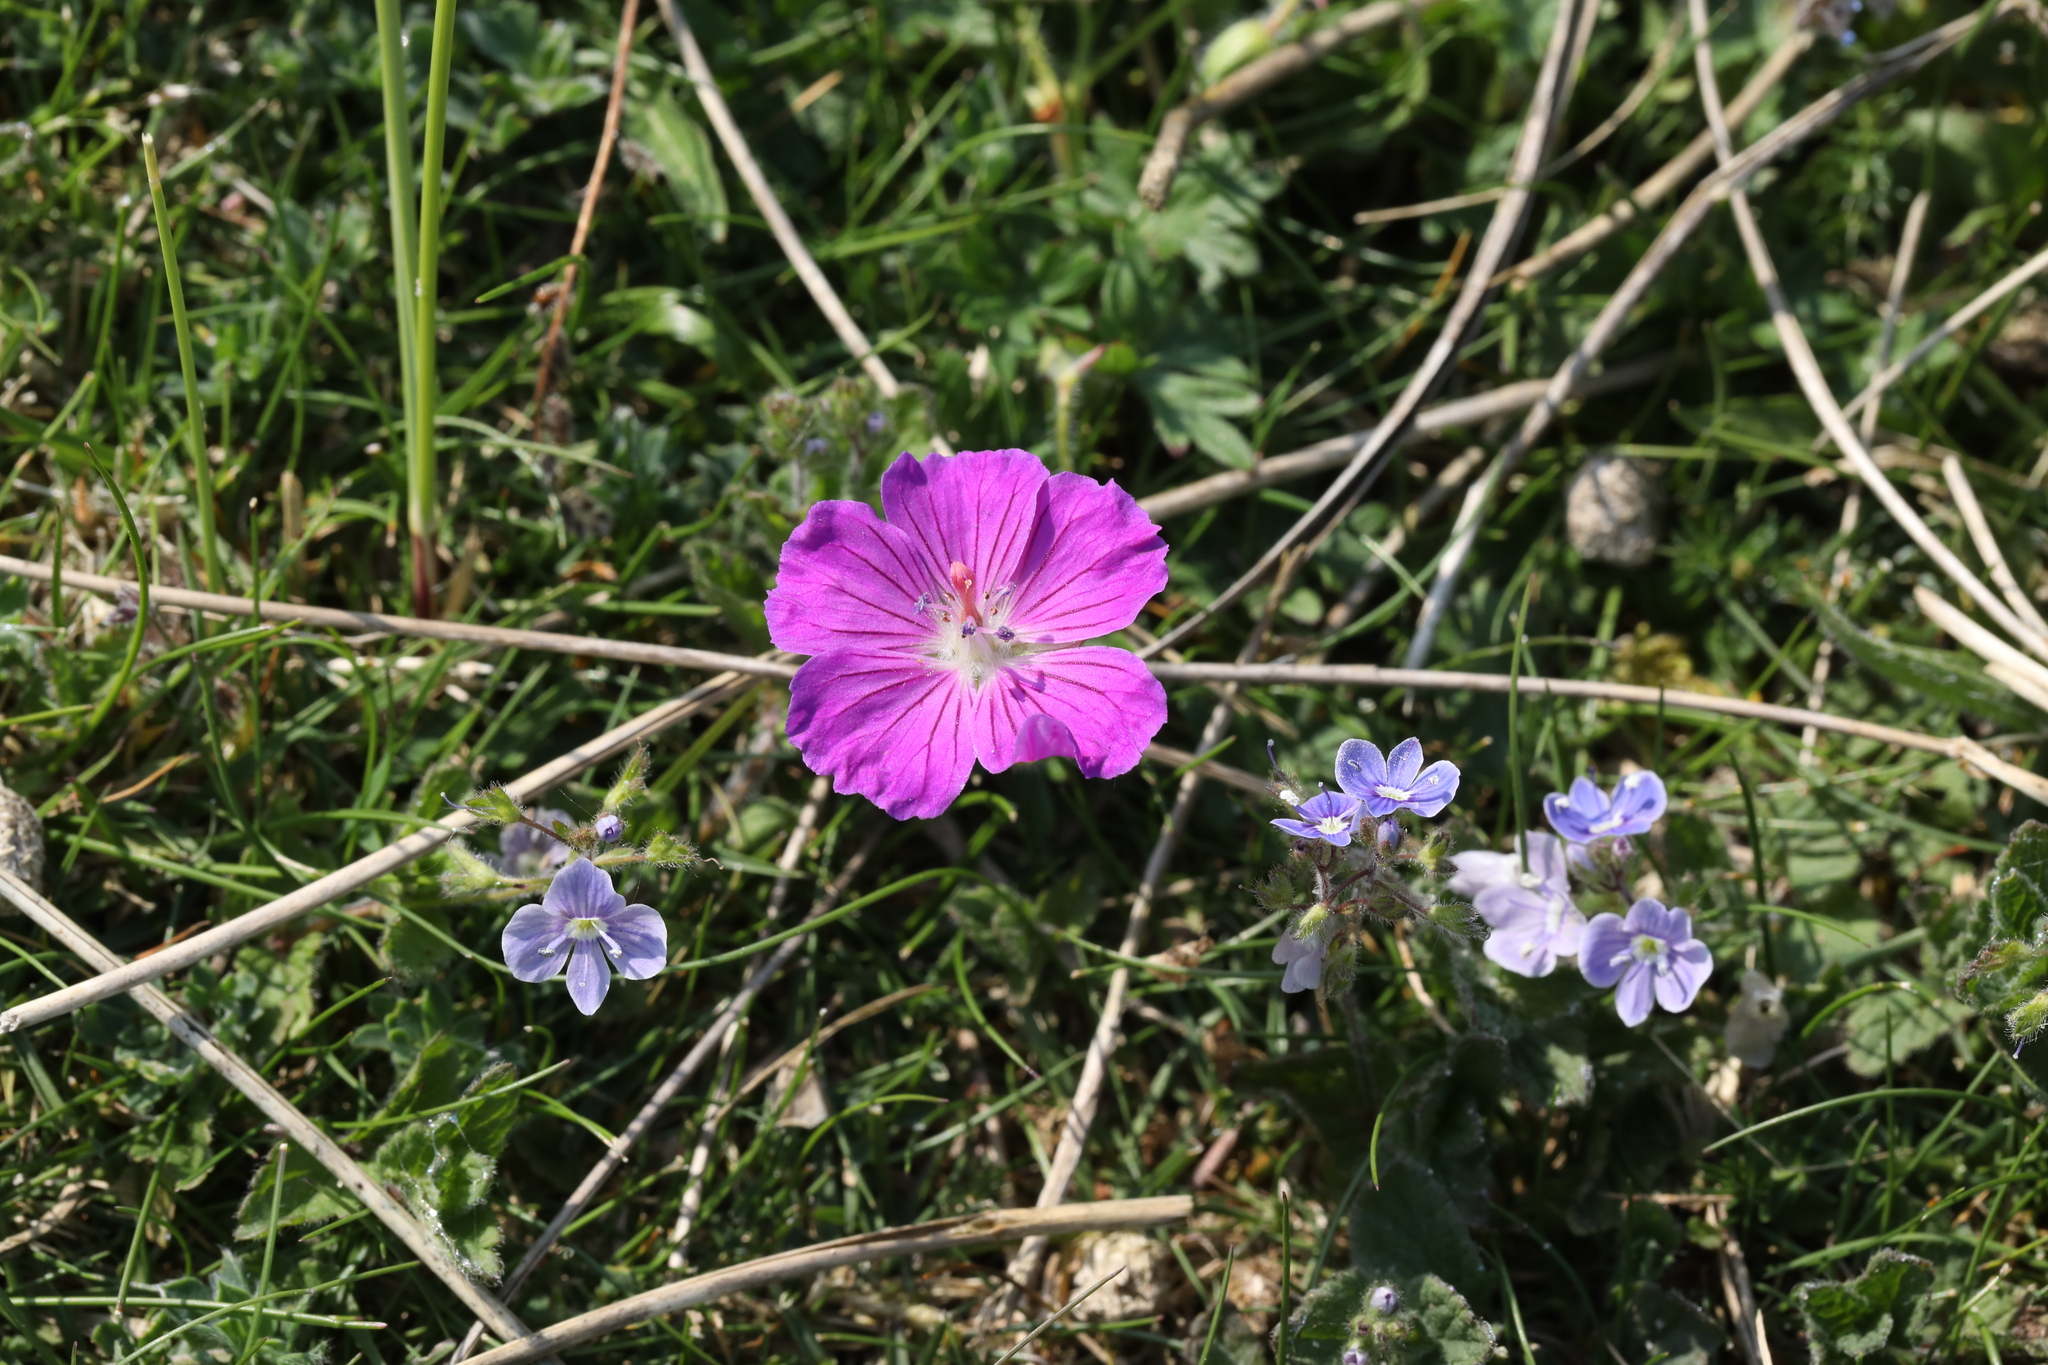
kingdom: Plantae
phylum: Tracheophyta
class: Magnoliopsida
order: Geraniales
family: Geraniaceae
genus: Geranium
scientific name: Geranium sanguineum
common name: Bloody crane's-bill
